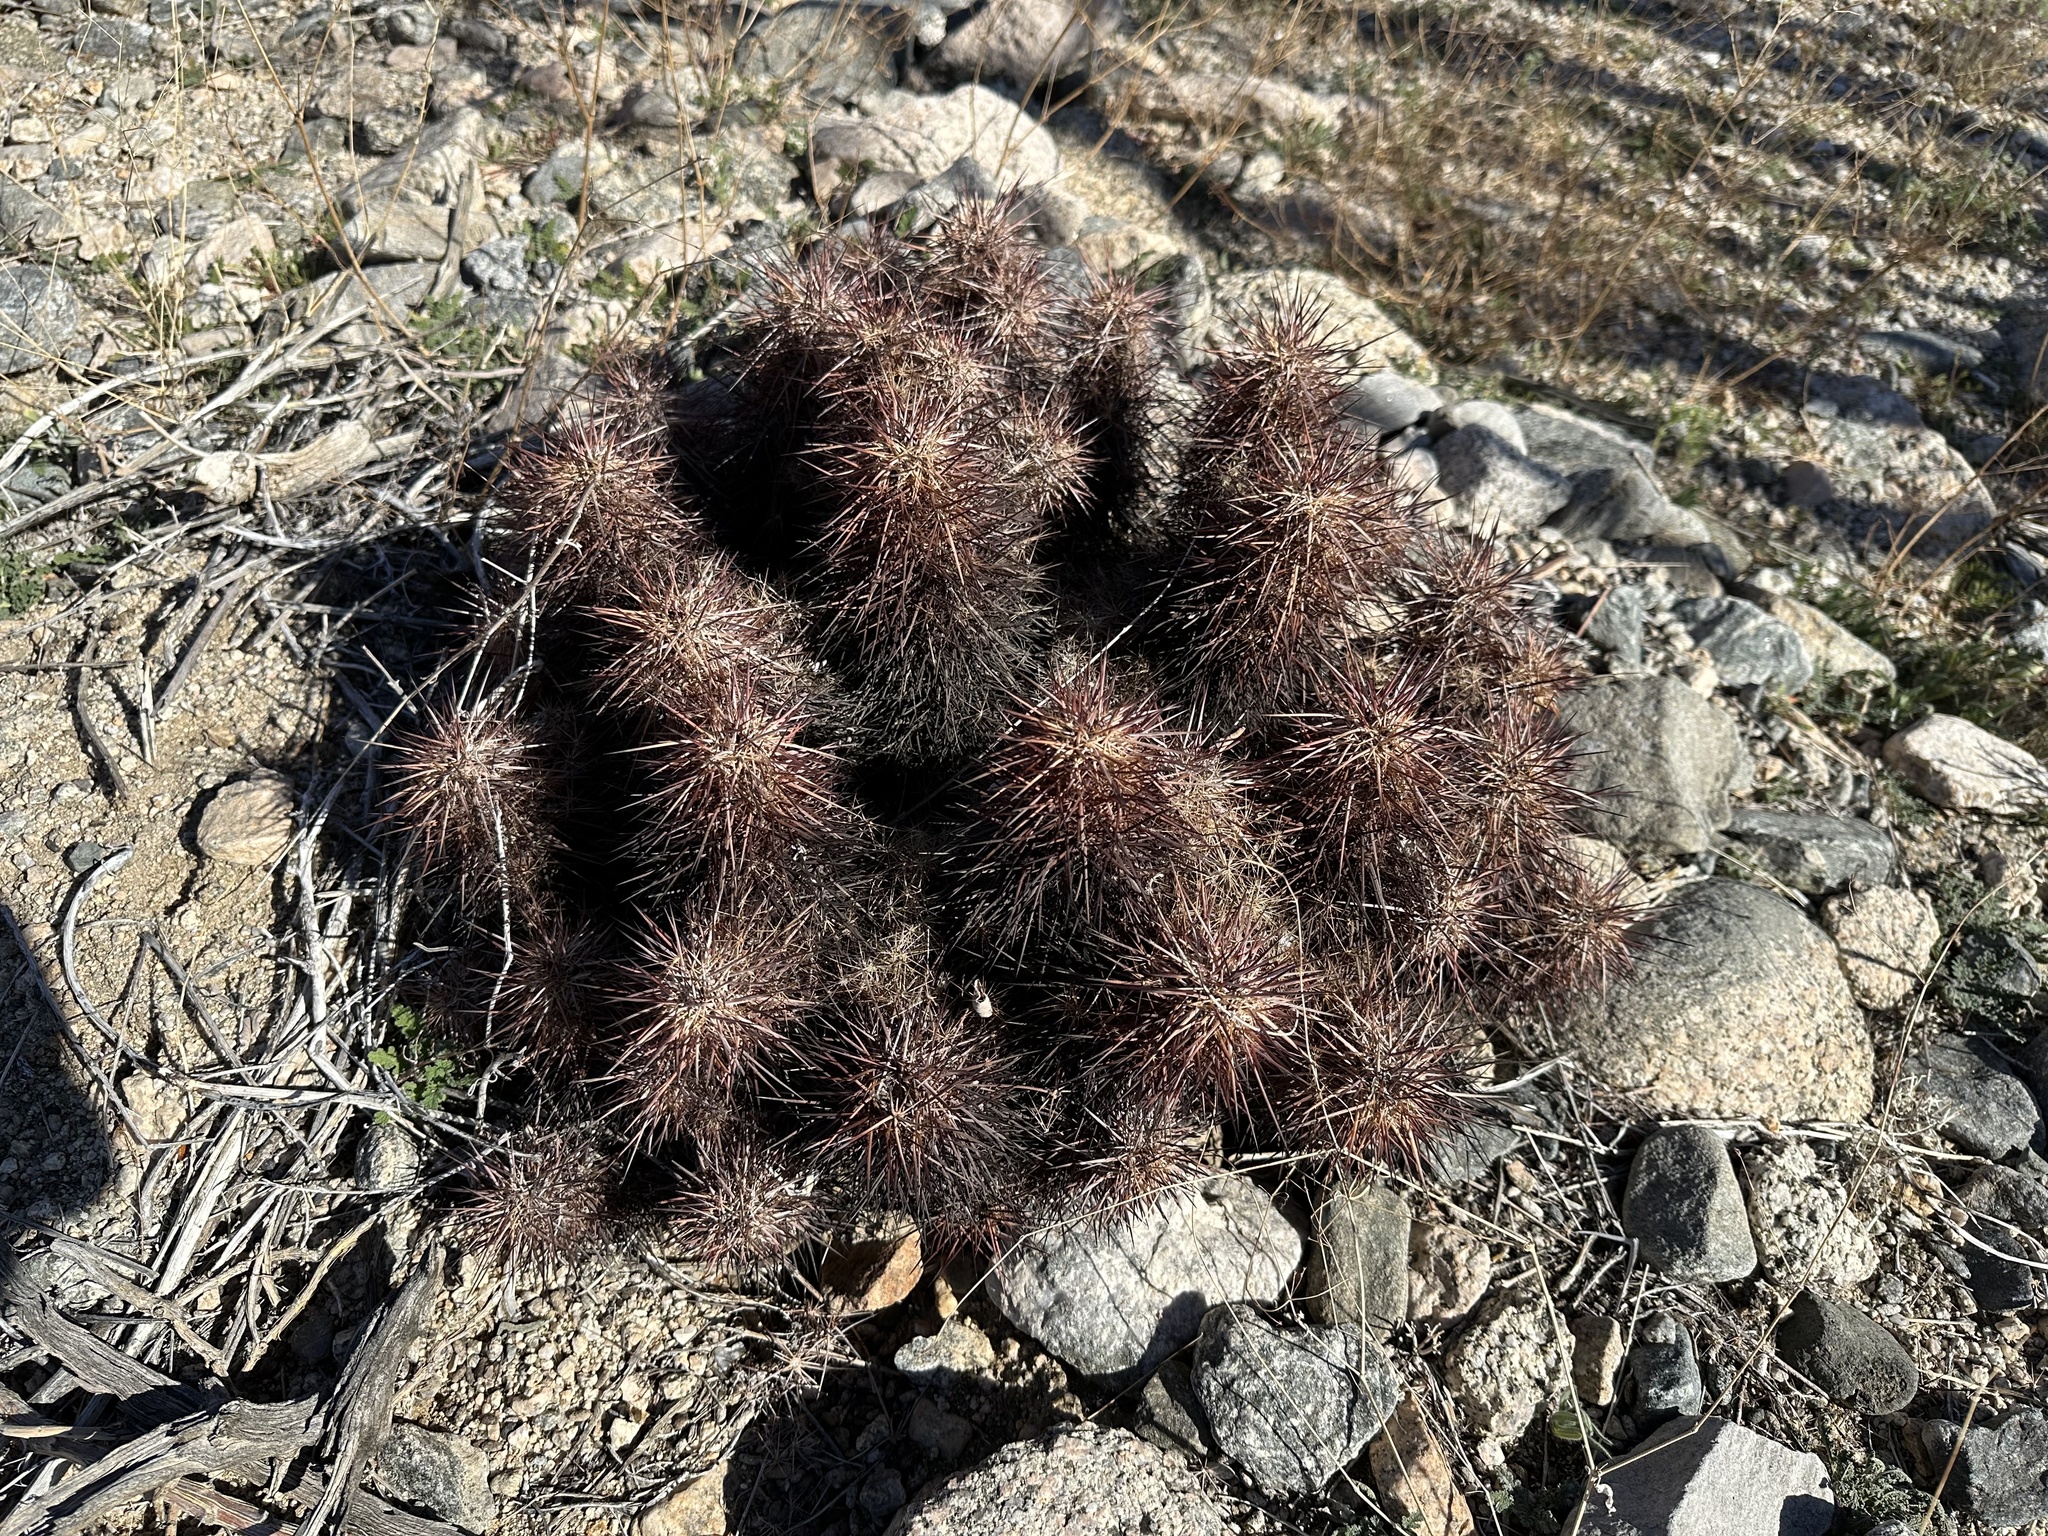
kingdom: Plantae
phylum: Tracheophyta
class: Magnoliopsida
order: Caryophyllales
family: Cactaceae
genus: Echinocereus
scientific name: Echinocereus engelmannii
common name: Engelmann's hedgehog cactus
